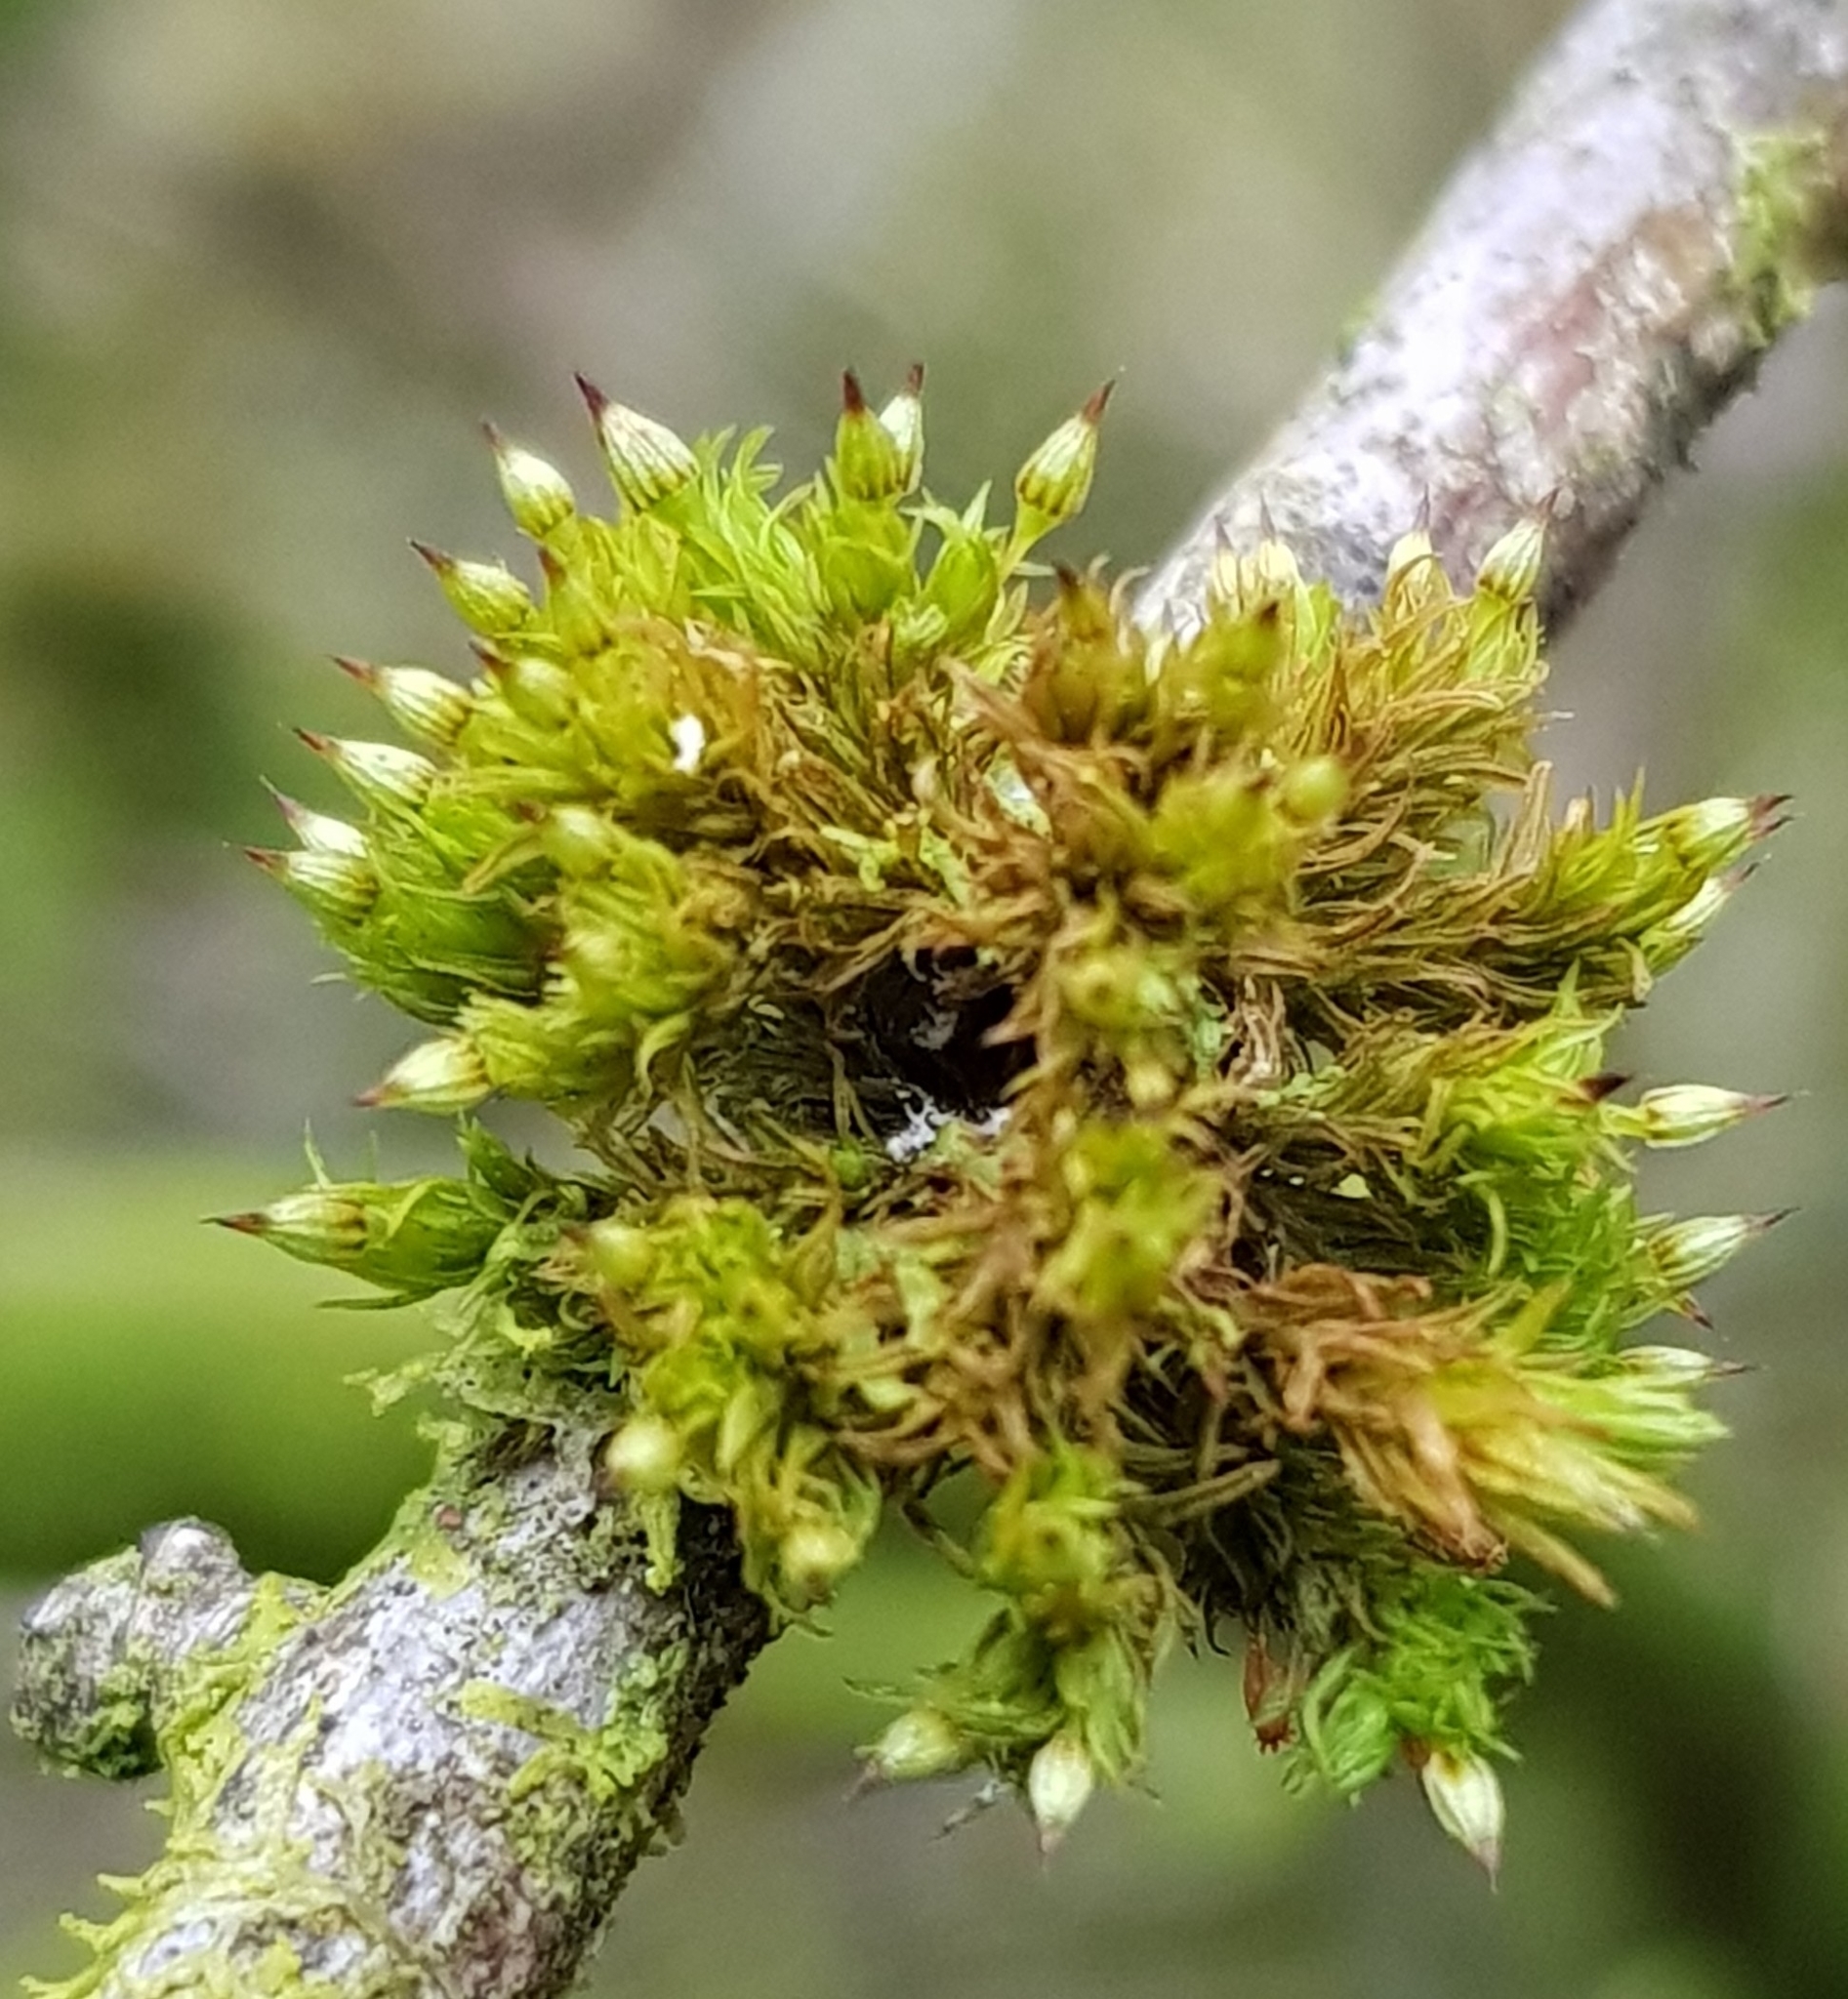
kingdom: Plantae
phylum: Bryophyta
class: Bryopsida
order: Orthotrichales
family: Orthotrichaceae
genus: Orthotrichum
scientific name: Orthotrichum pulchellum
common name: Elegant bristle-moss
